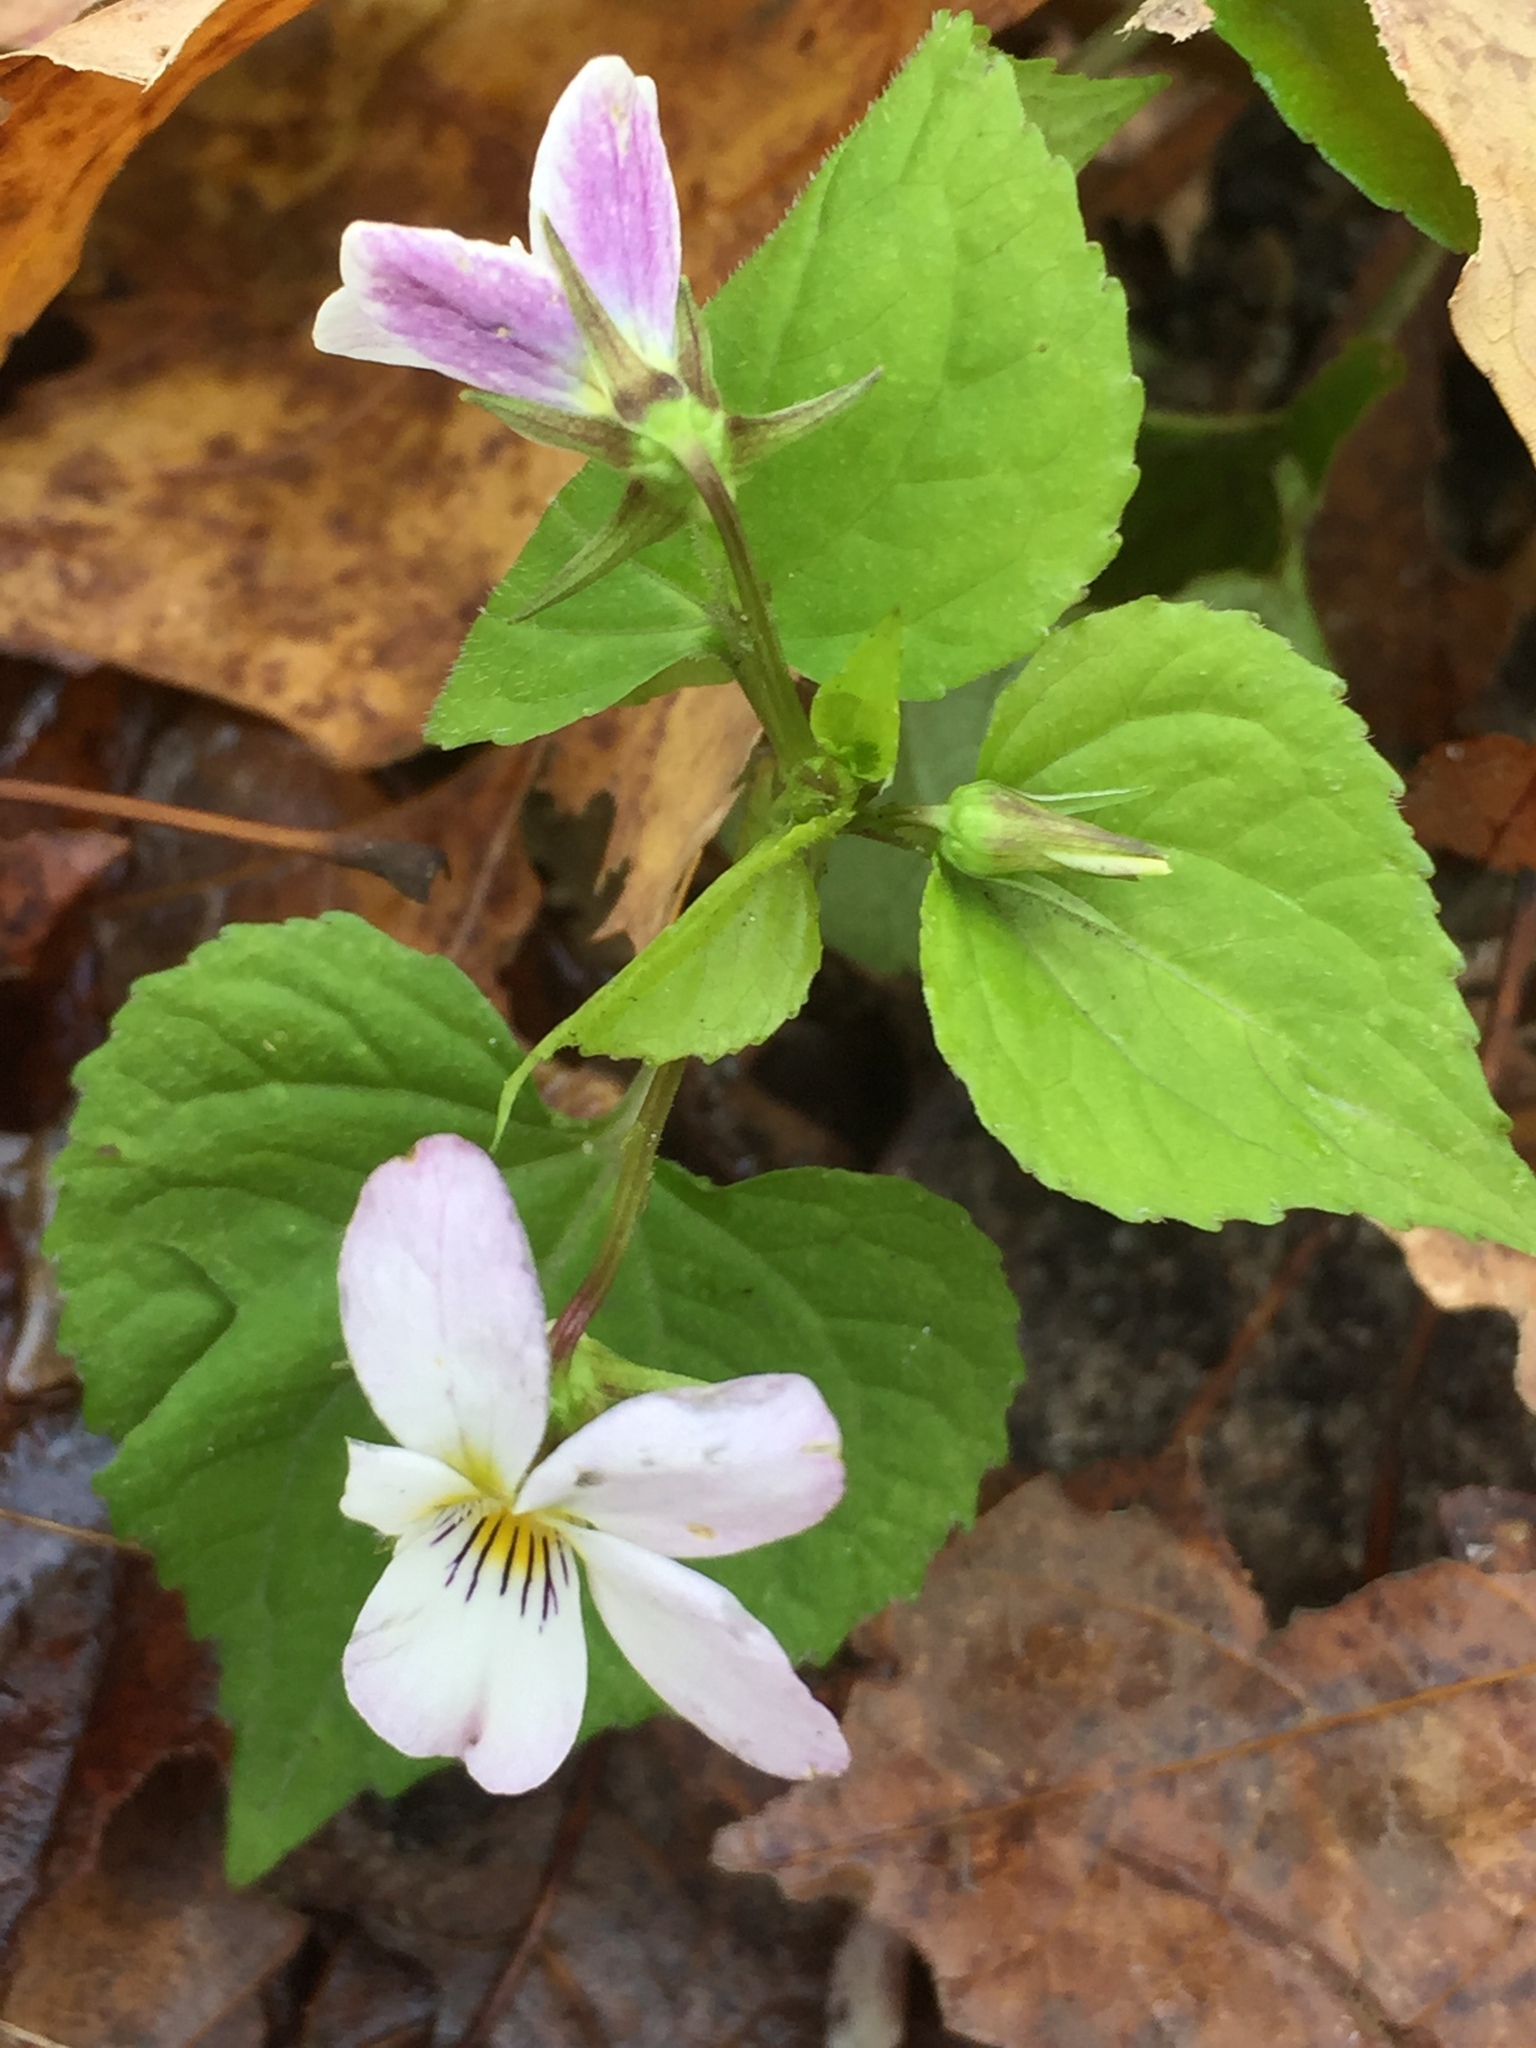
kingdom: Plantae
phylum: Tracheophyta
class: Magnoliopsida
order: Malpighiales
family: Violaceae
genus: Viola
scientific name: Viola canadensis
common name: Canada violet
